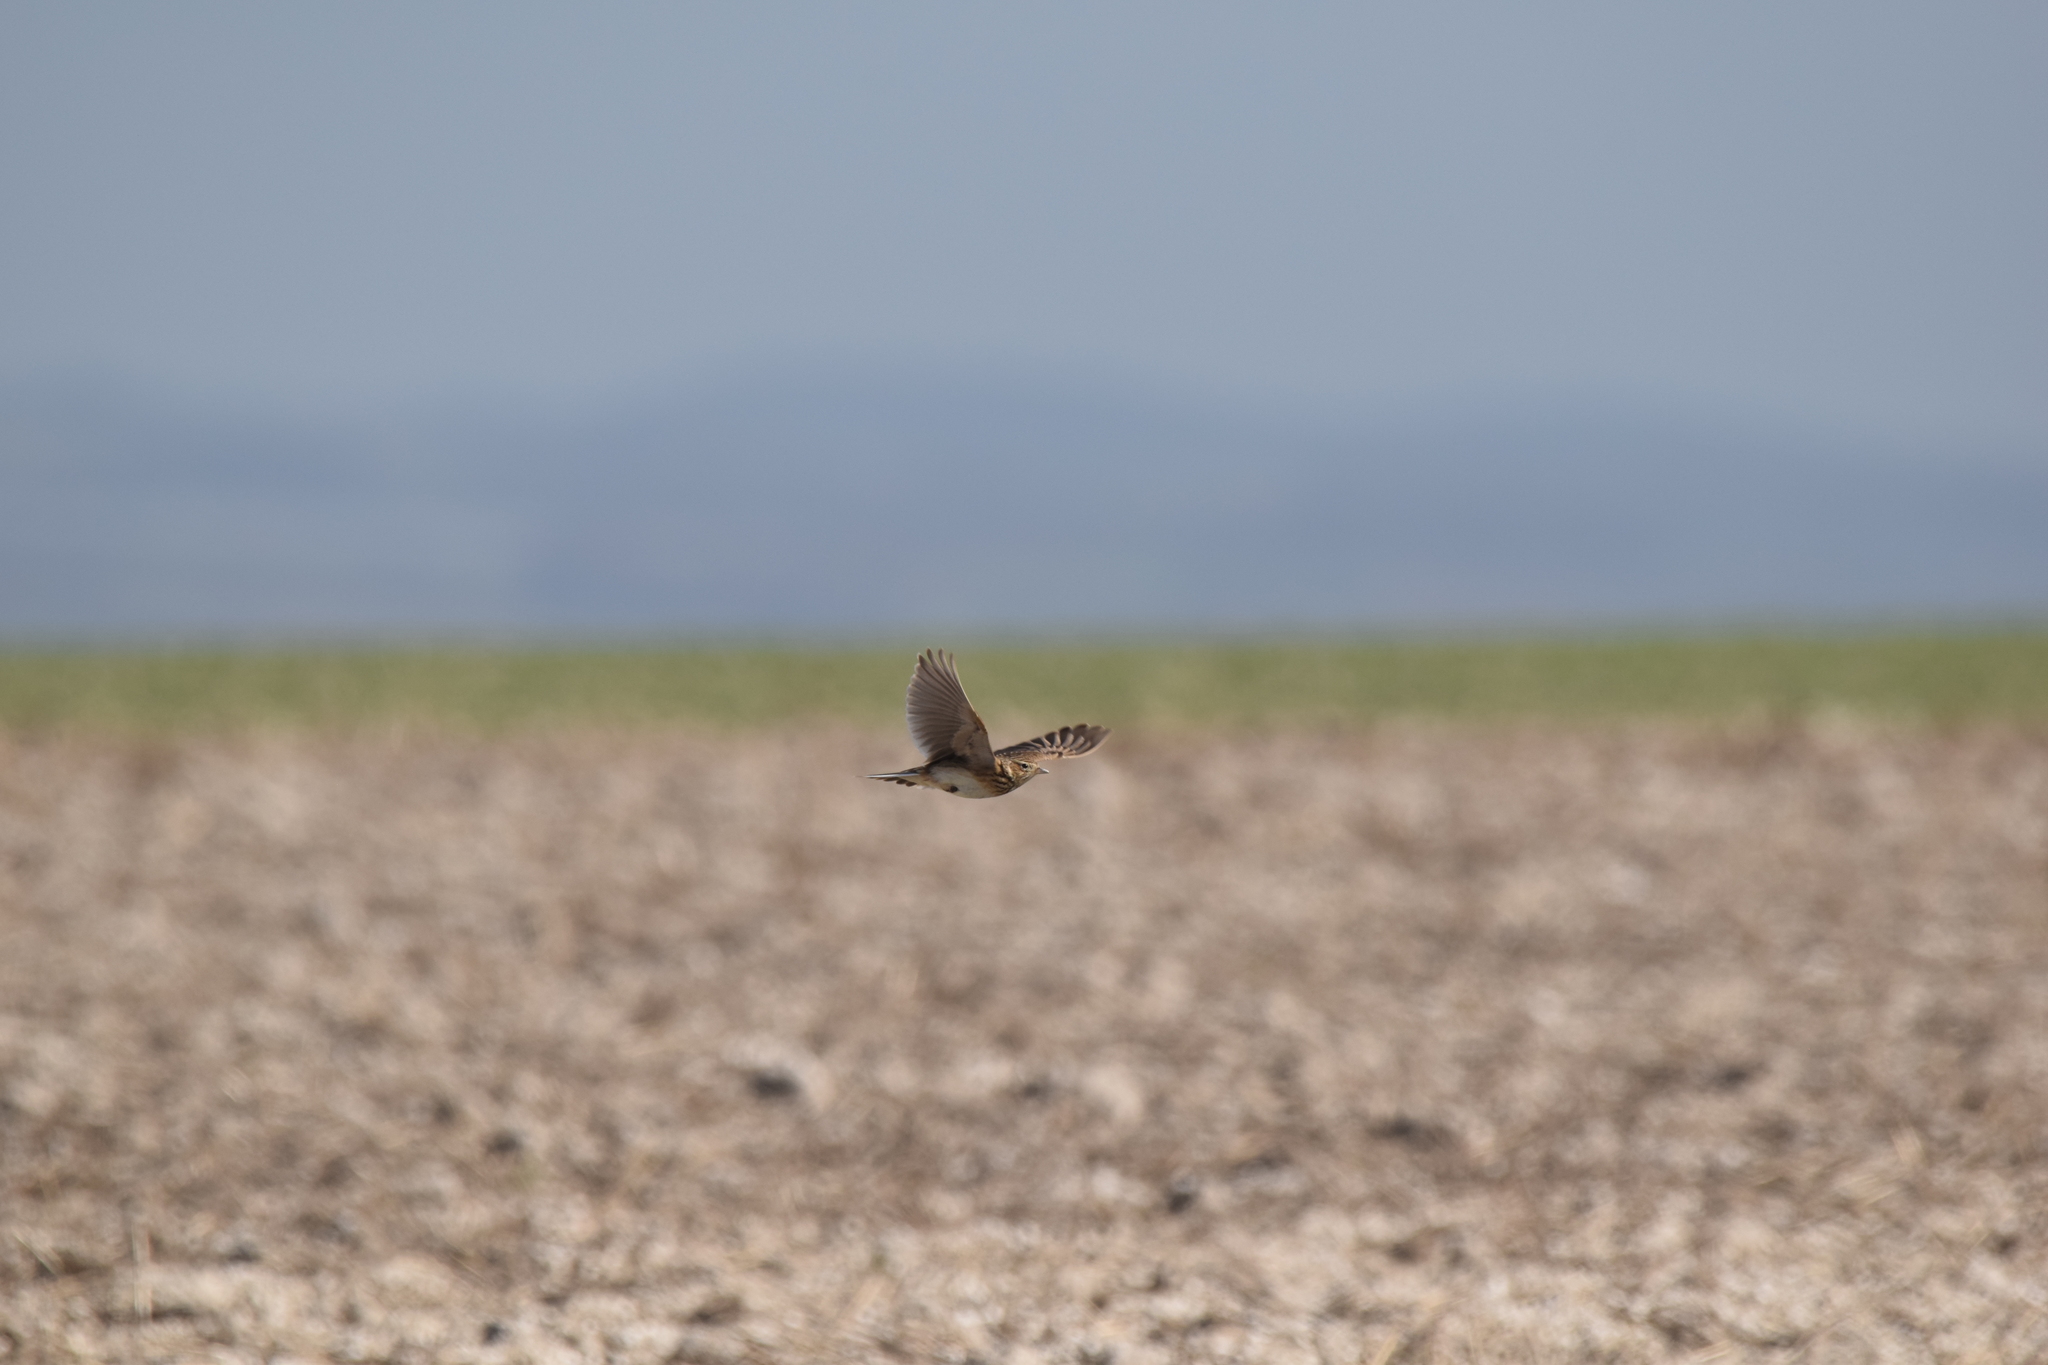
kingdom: Animalia
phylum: Chordata
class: Aves
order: Passeriformes
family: Alaudidae
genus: Alauda
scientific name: Alauda arvensis
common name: Eurasian skylark
